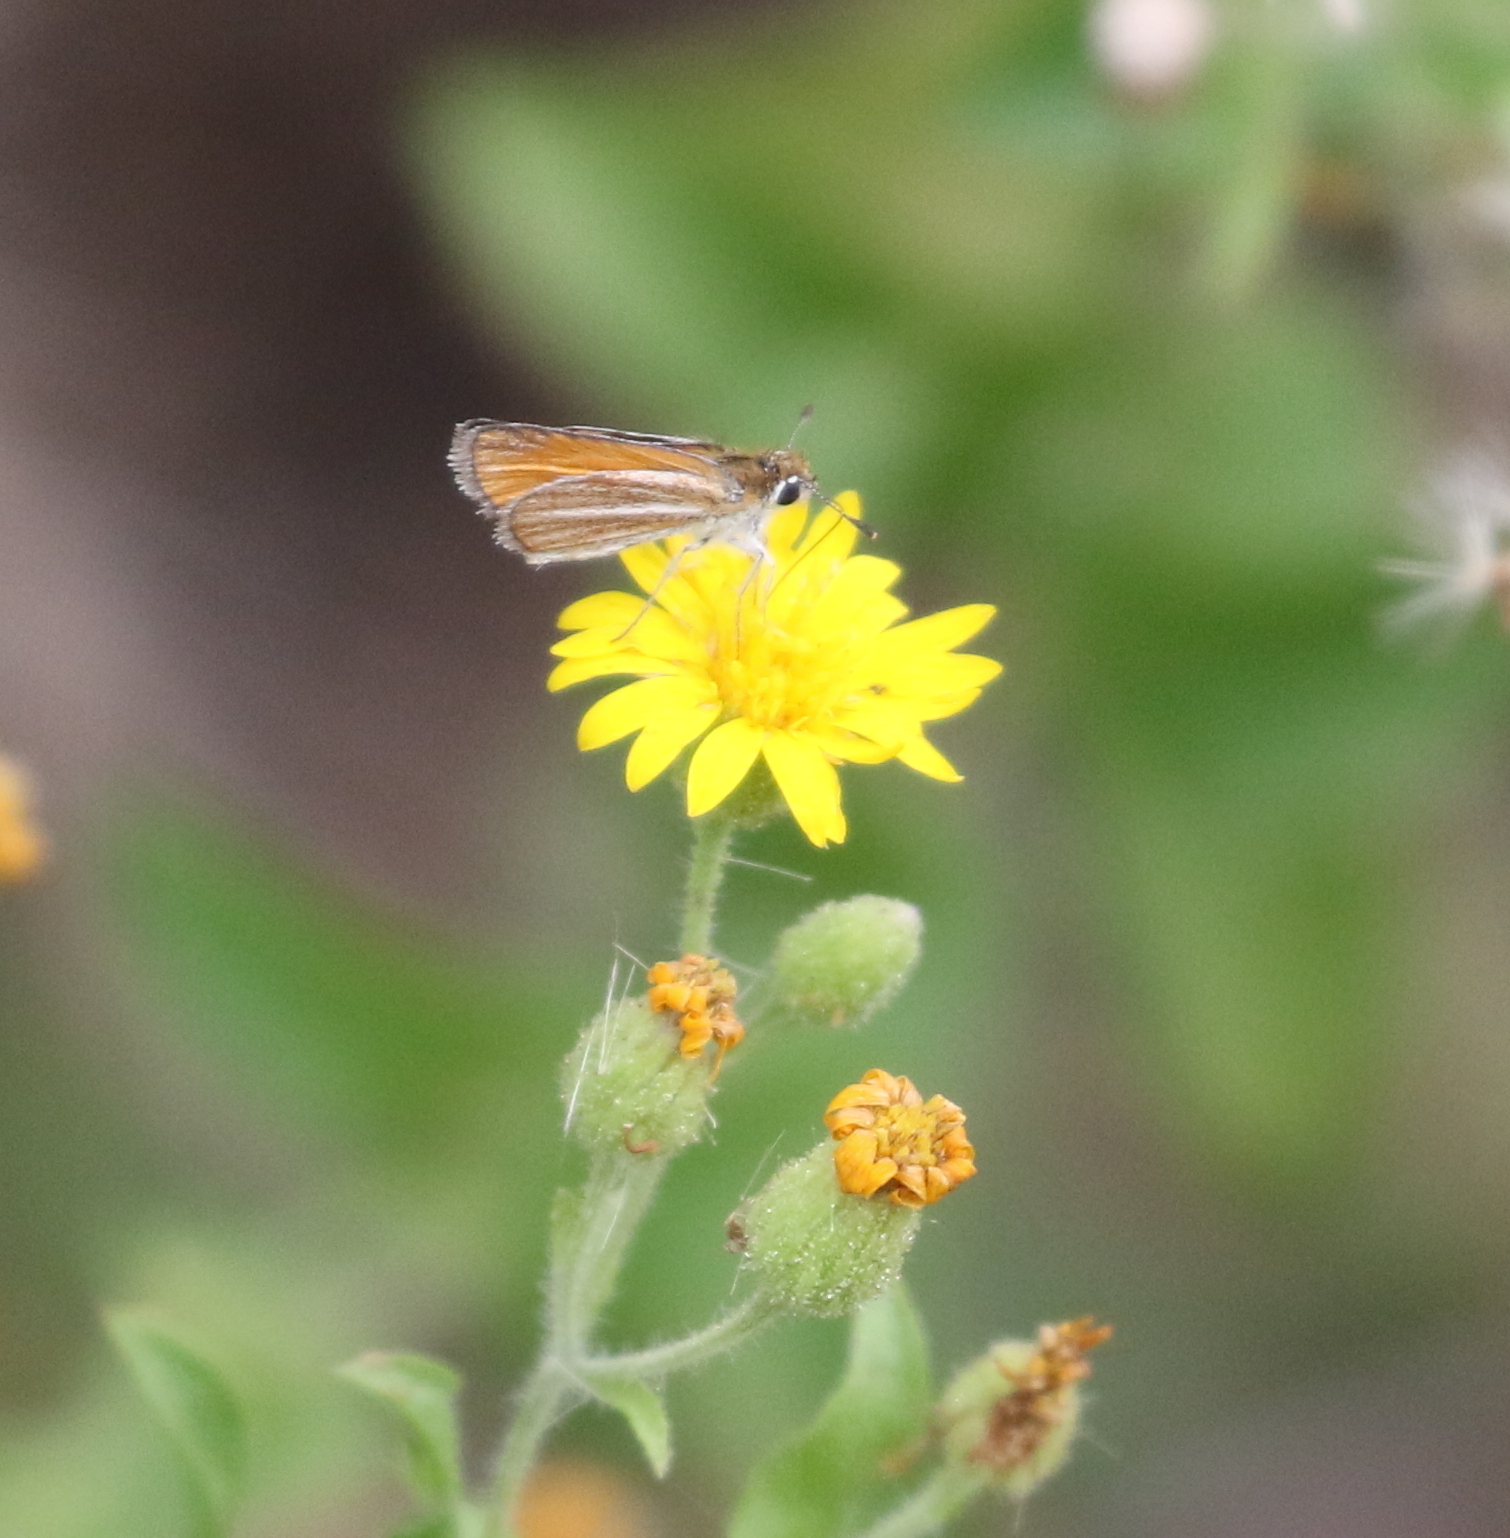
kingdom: Animalia
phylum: Arthropoda
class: Insecta
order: Lepidoptera
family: Hesperiidae
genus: Copaeodes
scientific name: Copaeodes minima
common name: Southern skipperling
